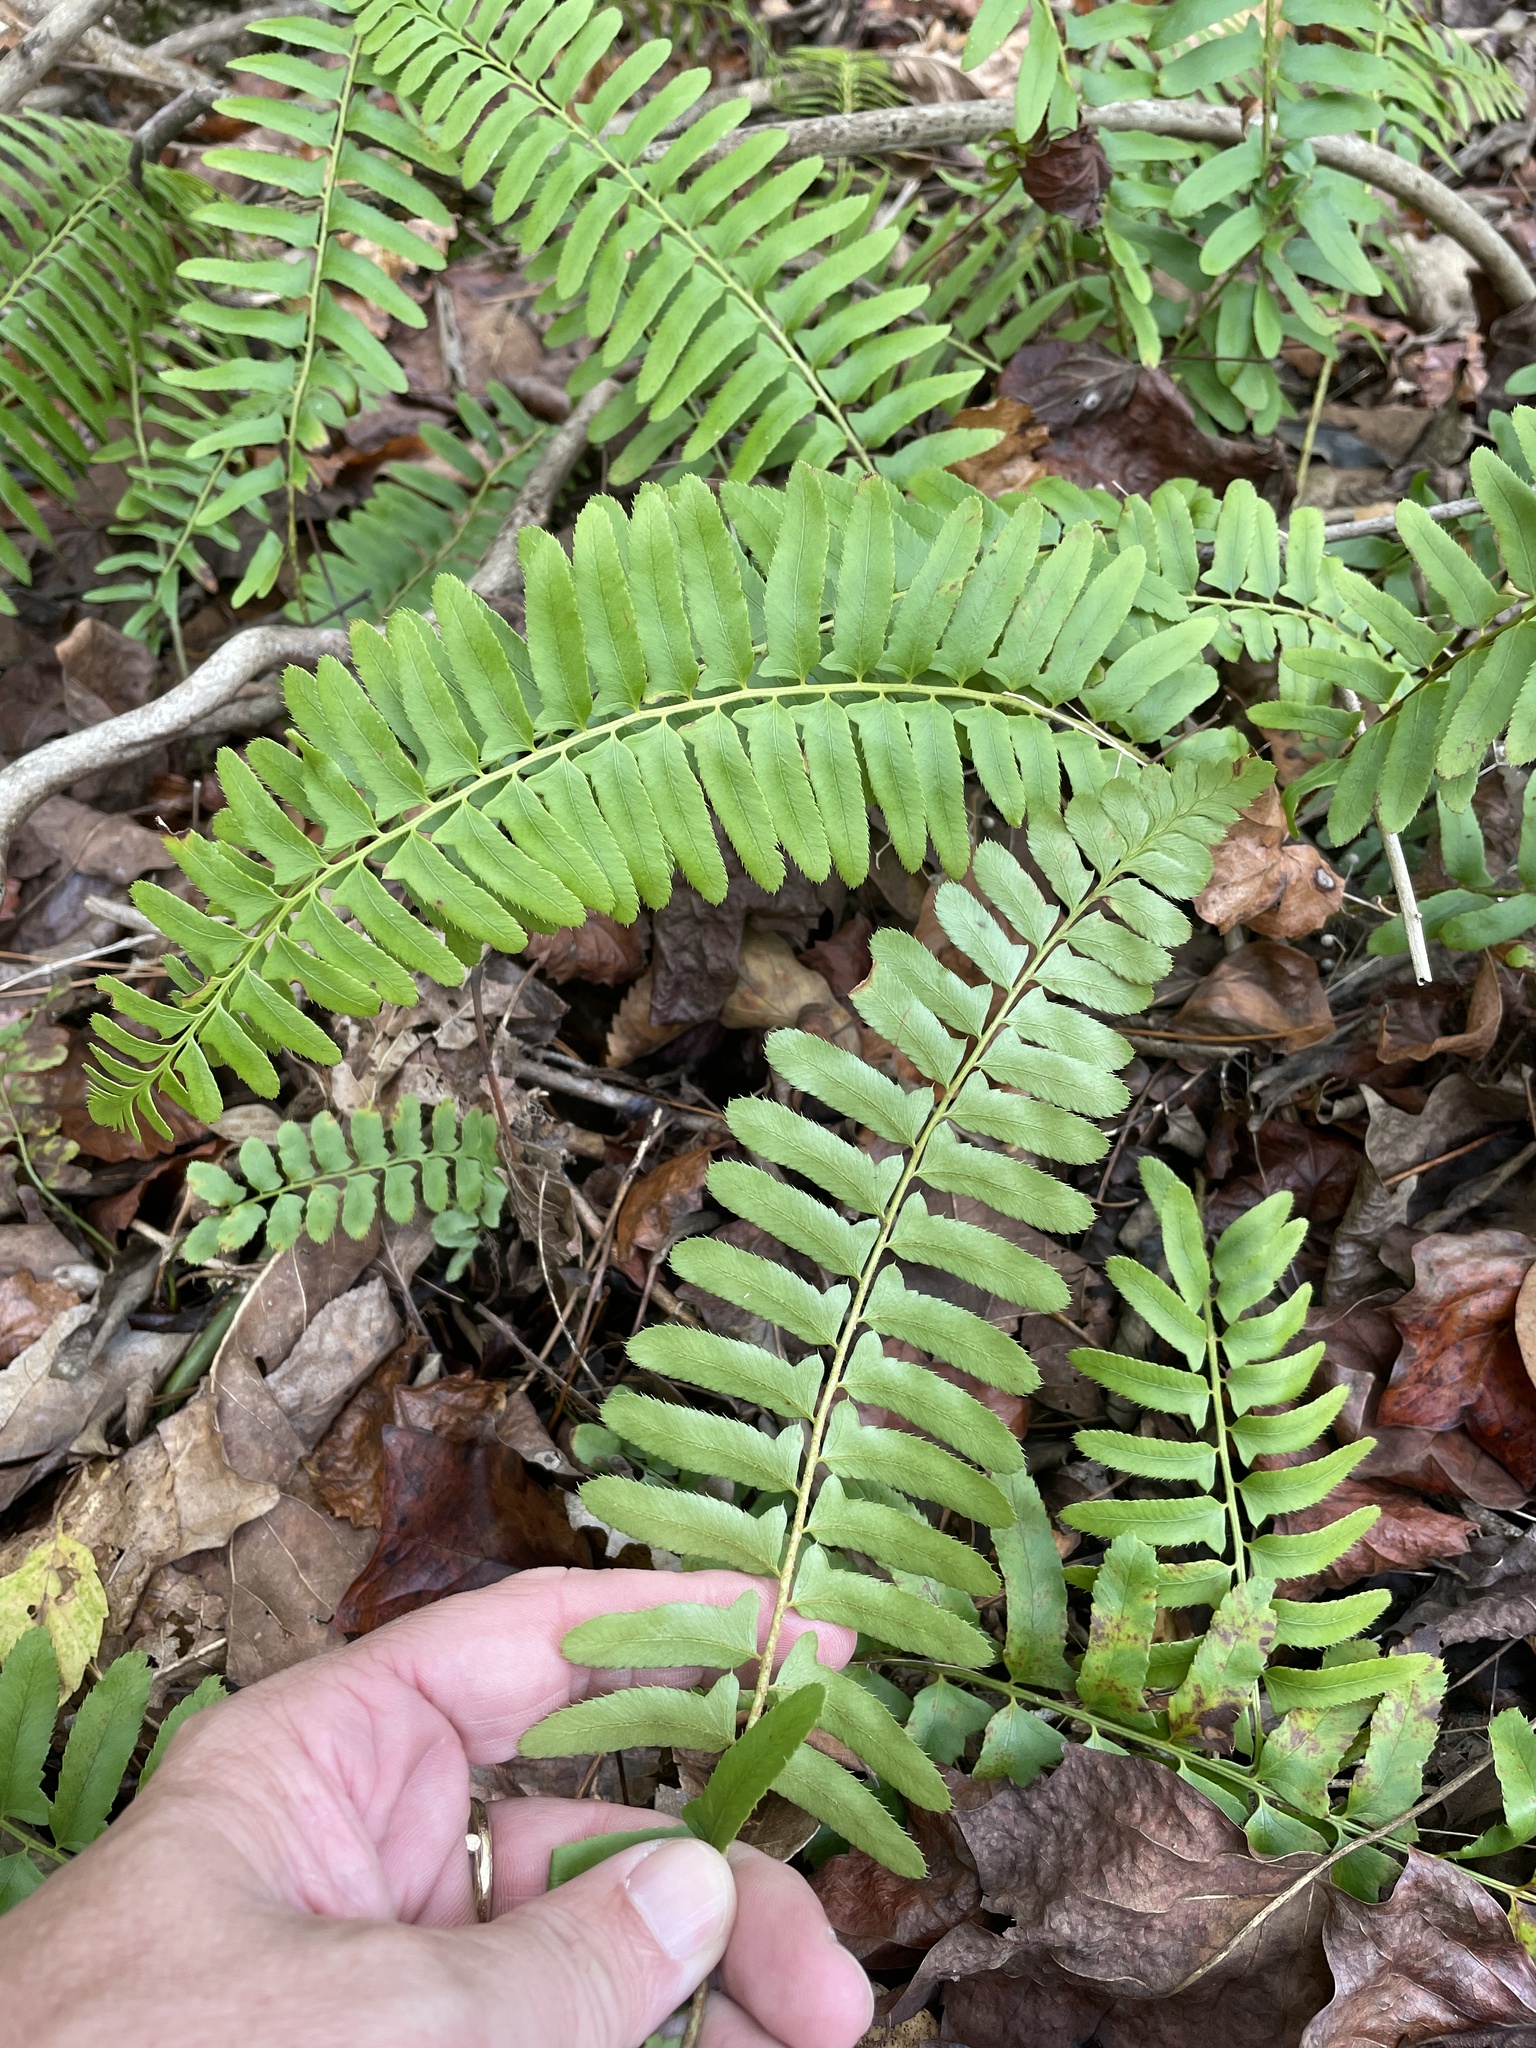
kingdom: Plantae
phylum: Tracheophyta
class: Polypodiopsida
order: Polypodiales
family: Dryopteridaceae
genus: Polystichum
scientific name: Polystichum acrostichoides
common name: Christmas fern
